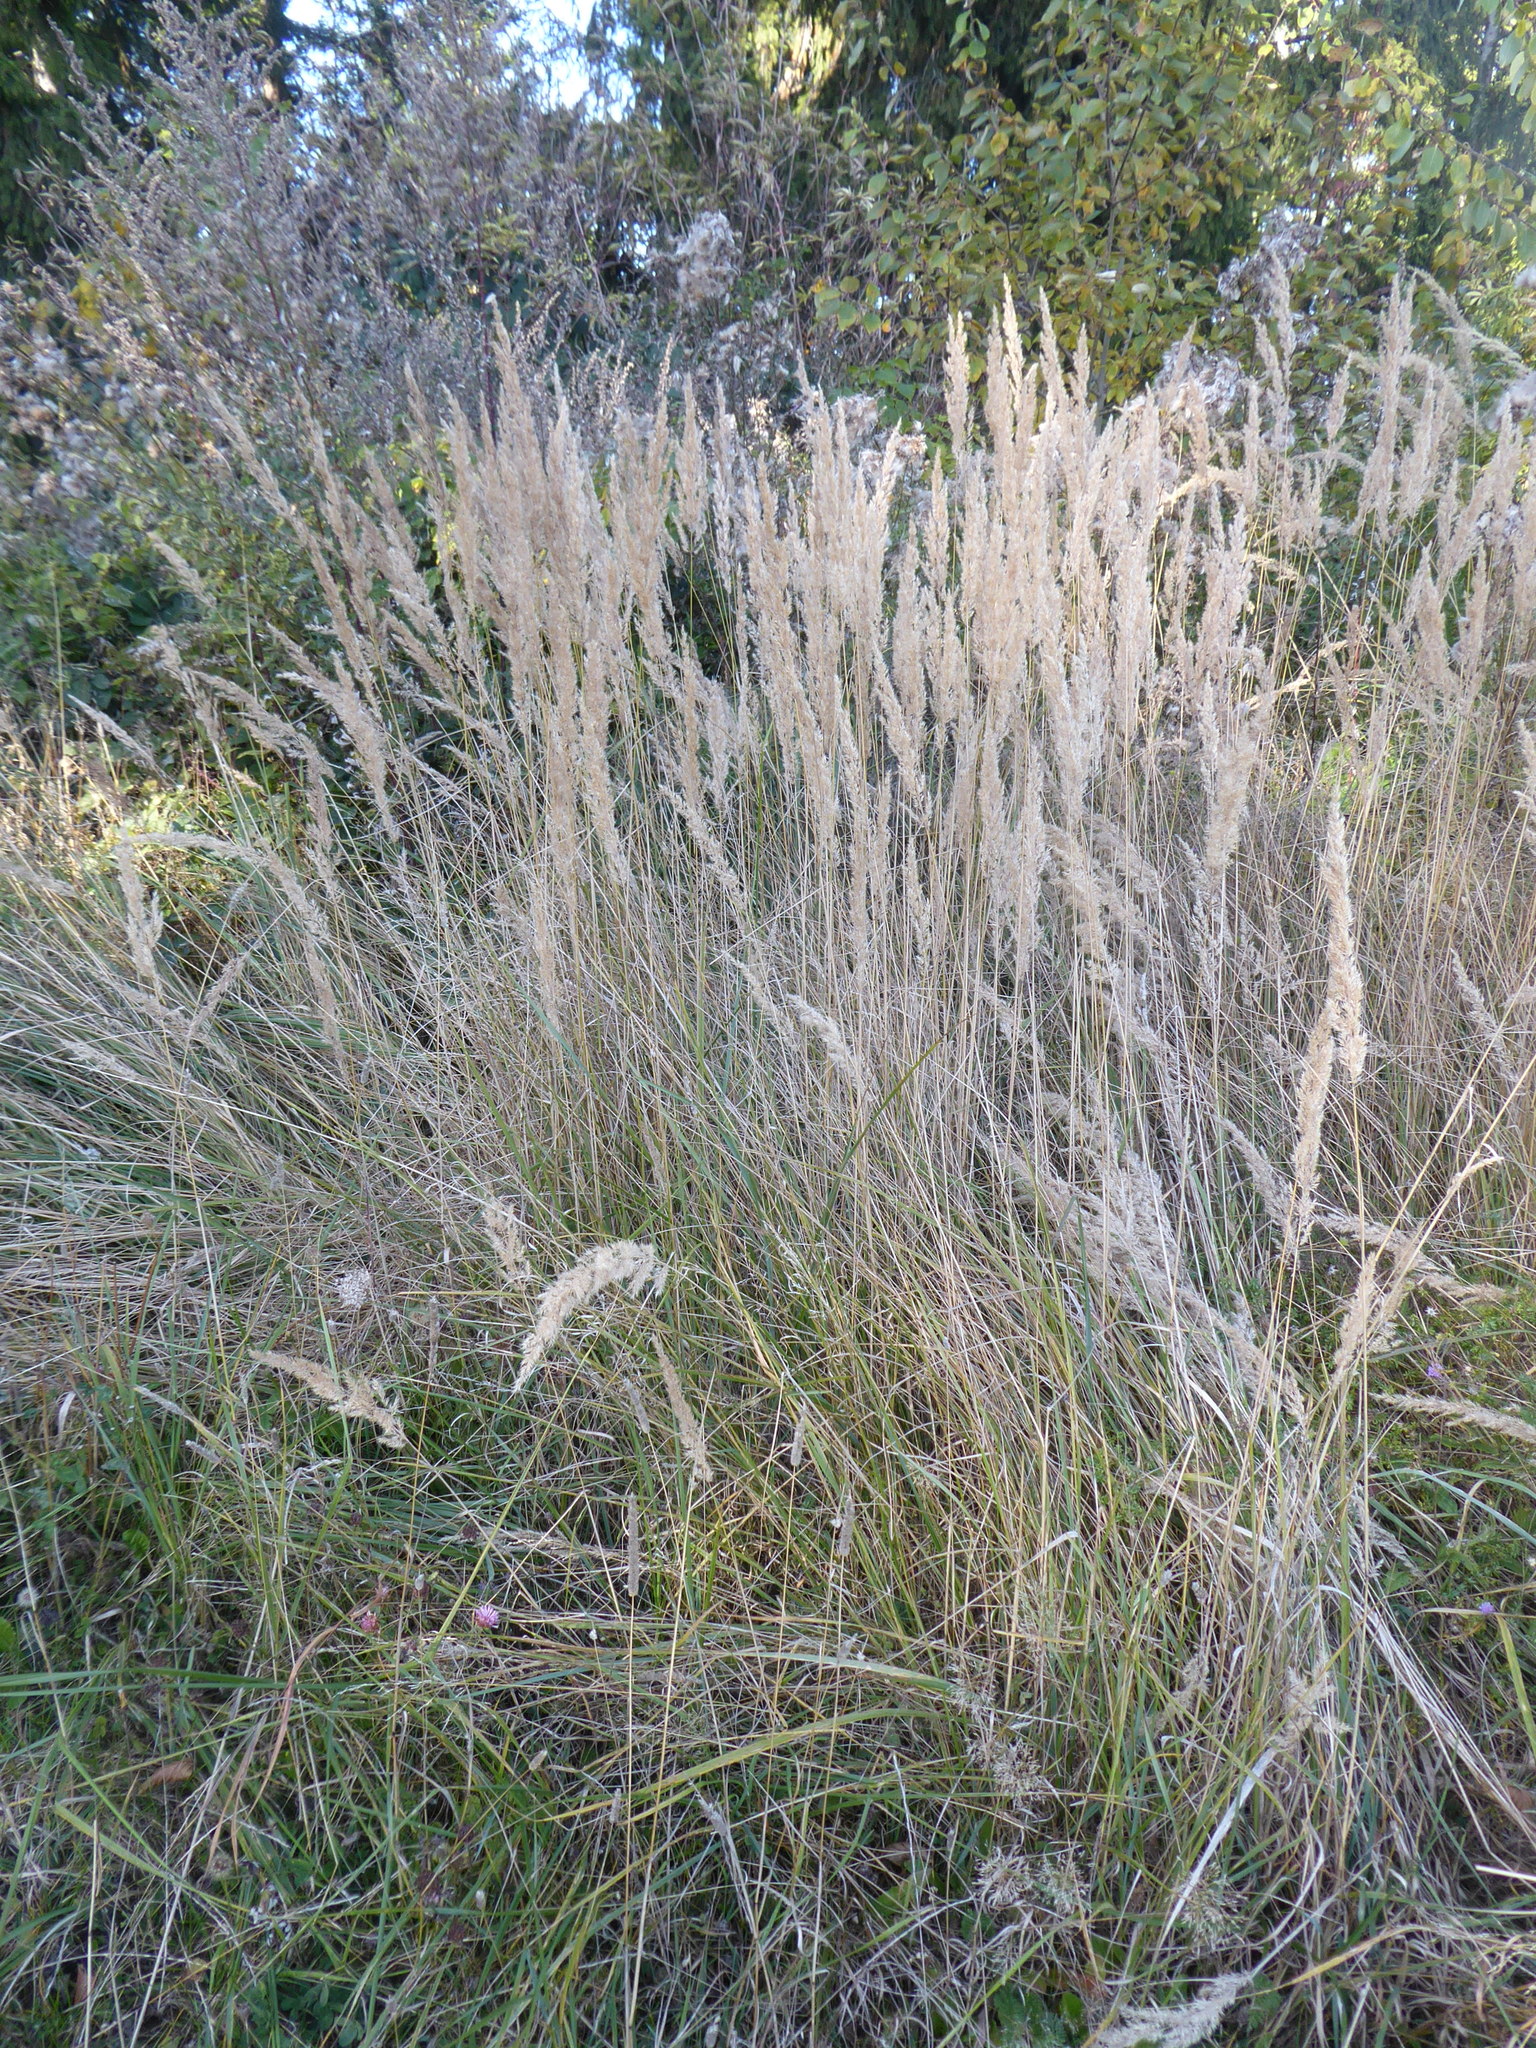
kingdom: Plantae
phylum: Tracheophyta
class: Liliopsida
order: Poales
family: Poaceae
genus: Calamagrostis
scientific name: Calamagrostis epigejos
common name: Wood small-reed
